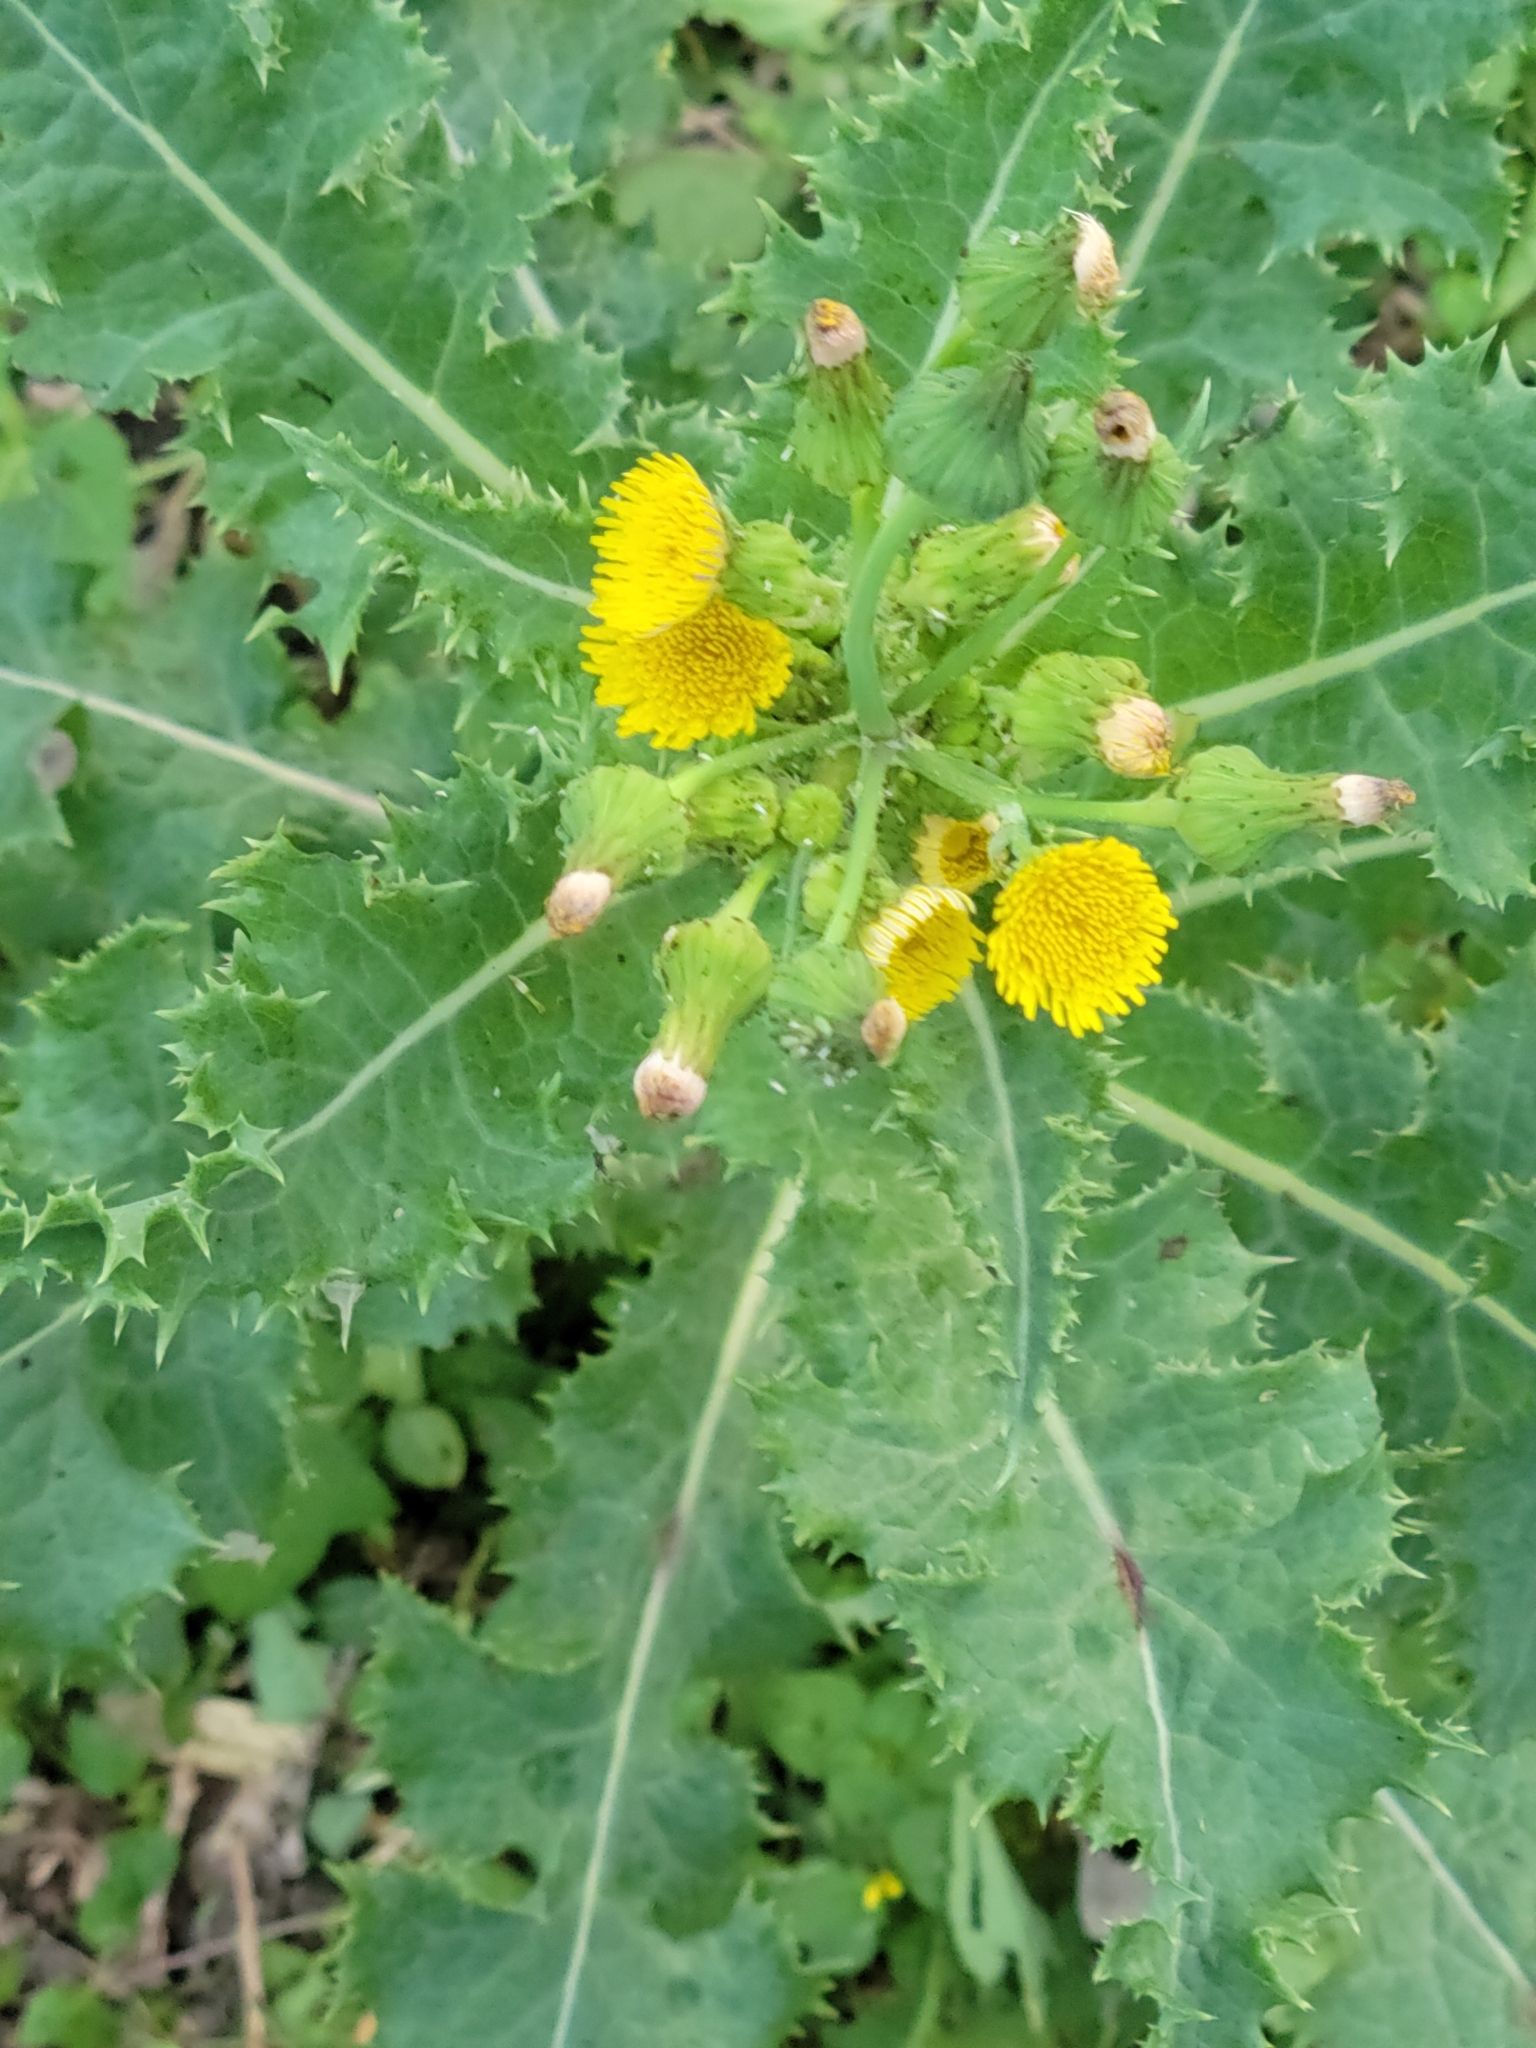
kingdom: Plantae
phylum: Tracheophyta
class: Magnoliopsida
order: Asterales
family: Asteraceae
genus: Sonchus
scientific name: Sonchus asper
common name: Prickly sow-thistle
